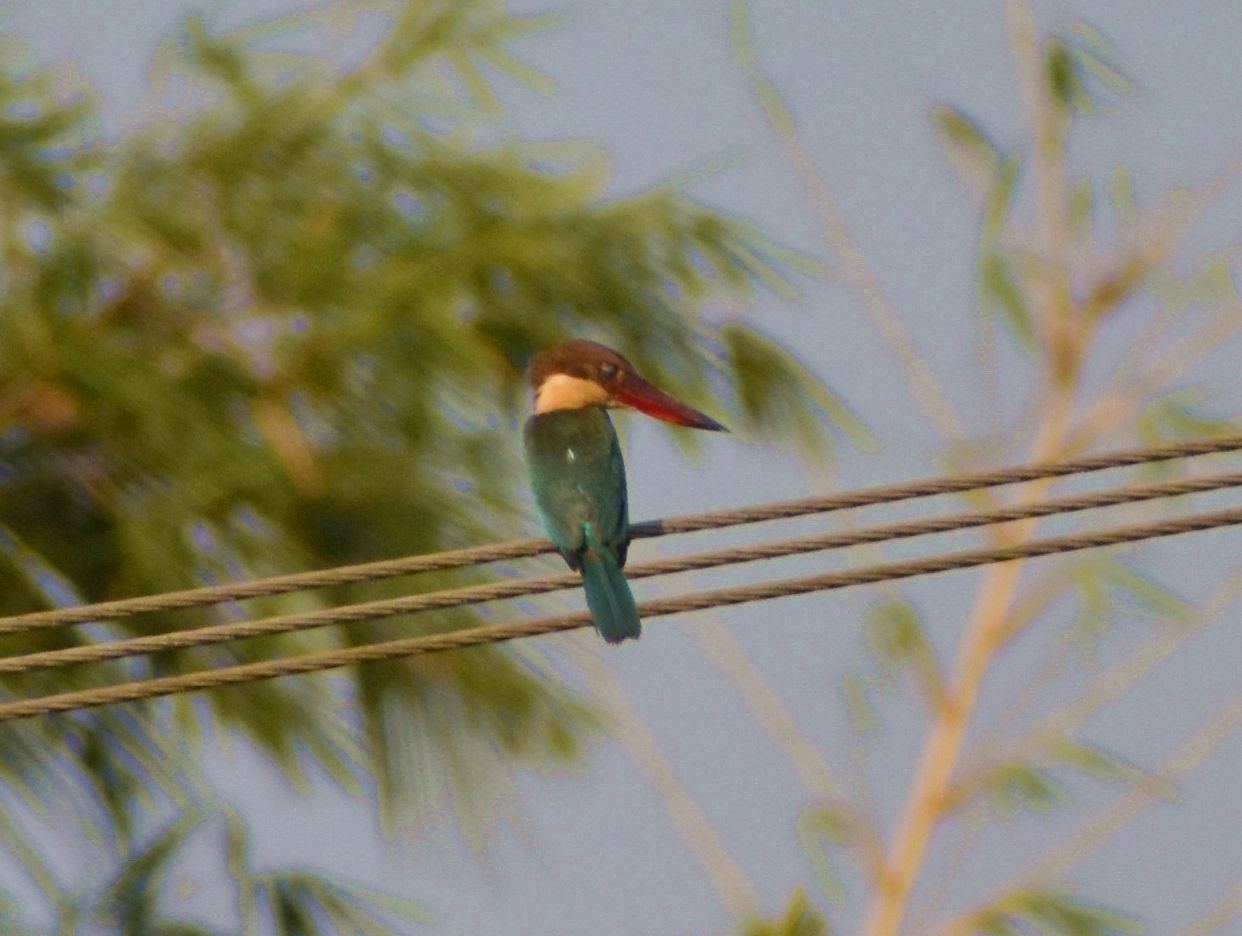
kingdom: Animalia
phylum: Chordata
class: Aves
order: Coraciiformes
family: Alcedinidae
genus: Pelargopsis
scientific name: Pelargopsis capensis
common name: Stork-billed kingfisher
